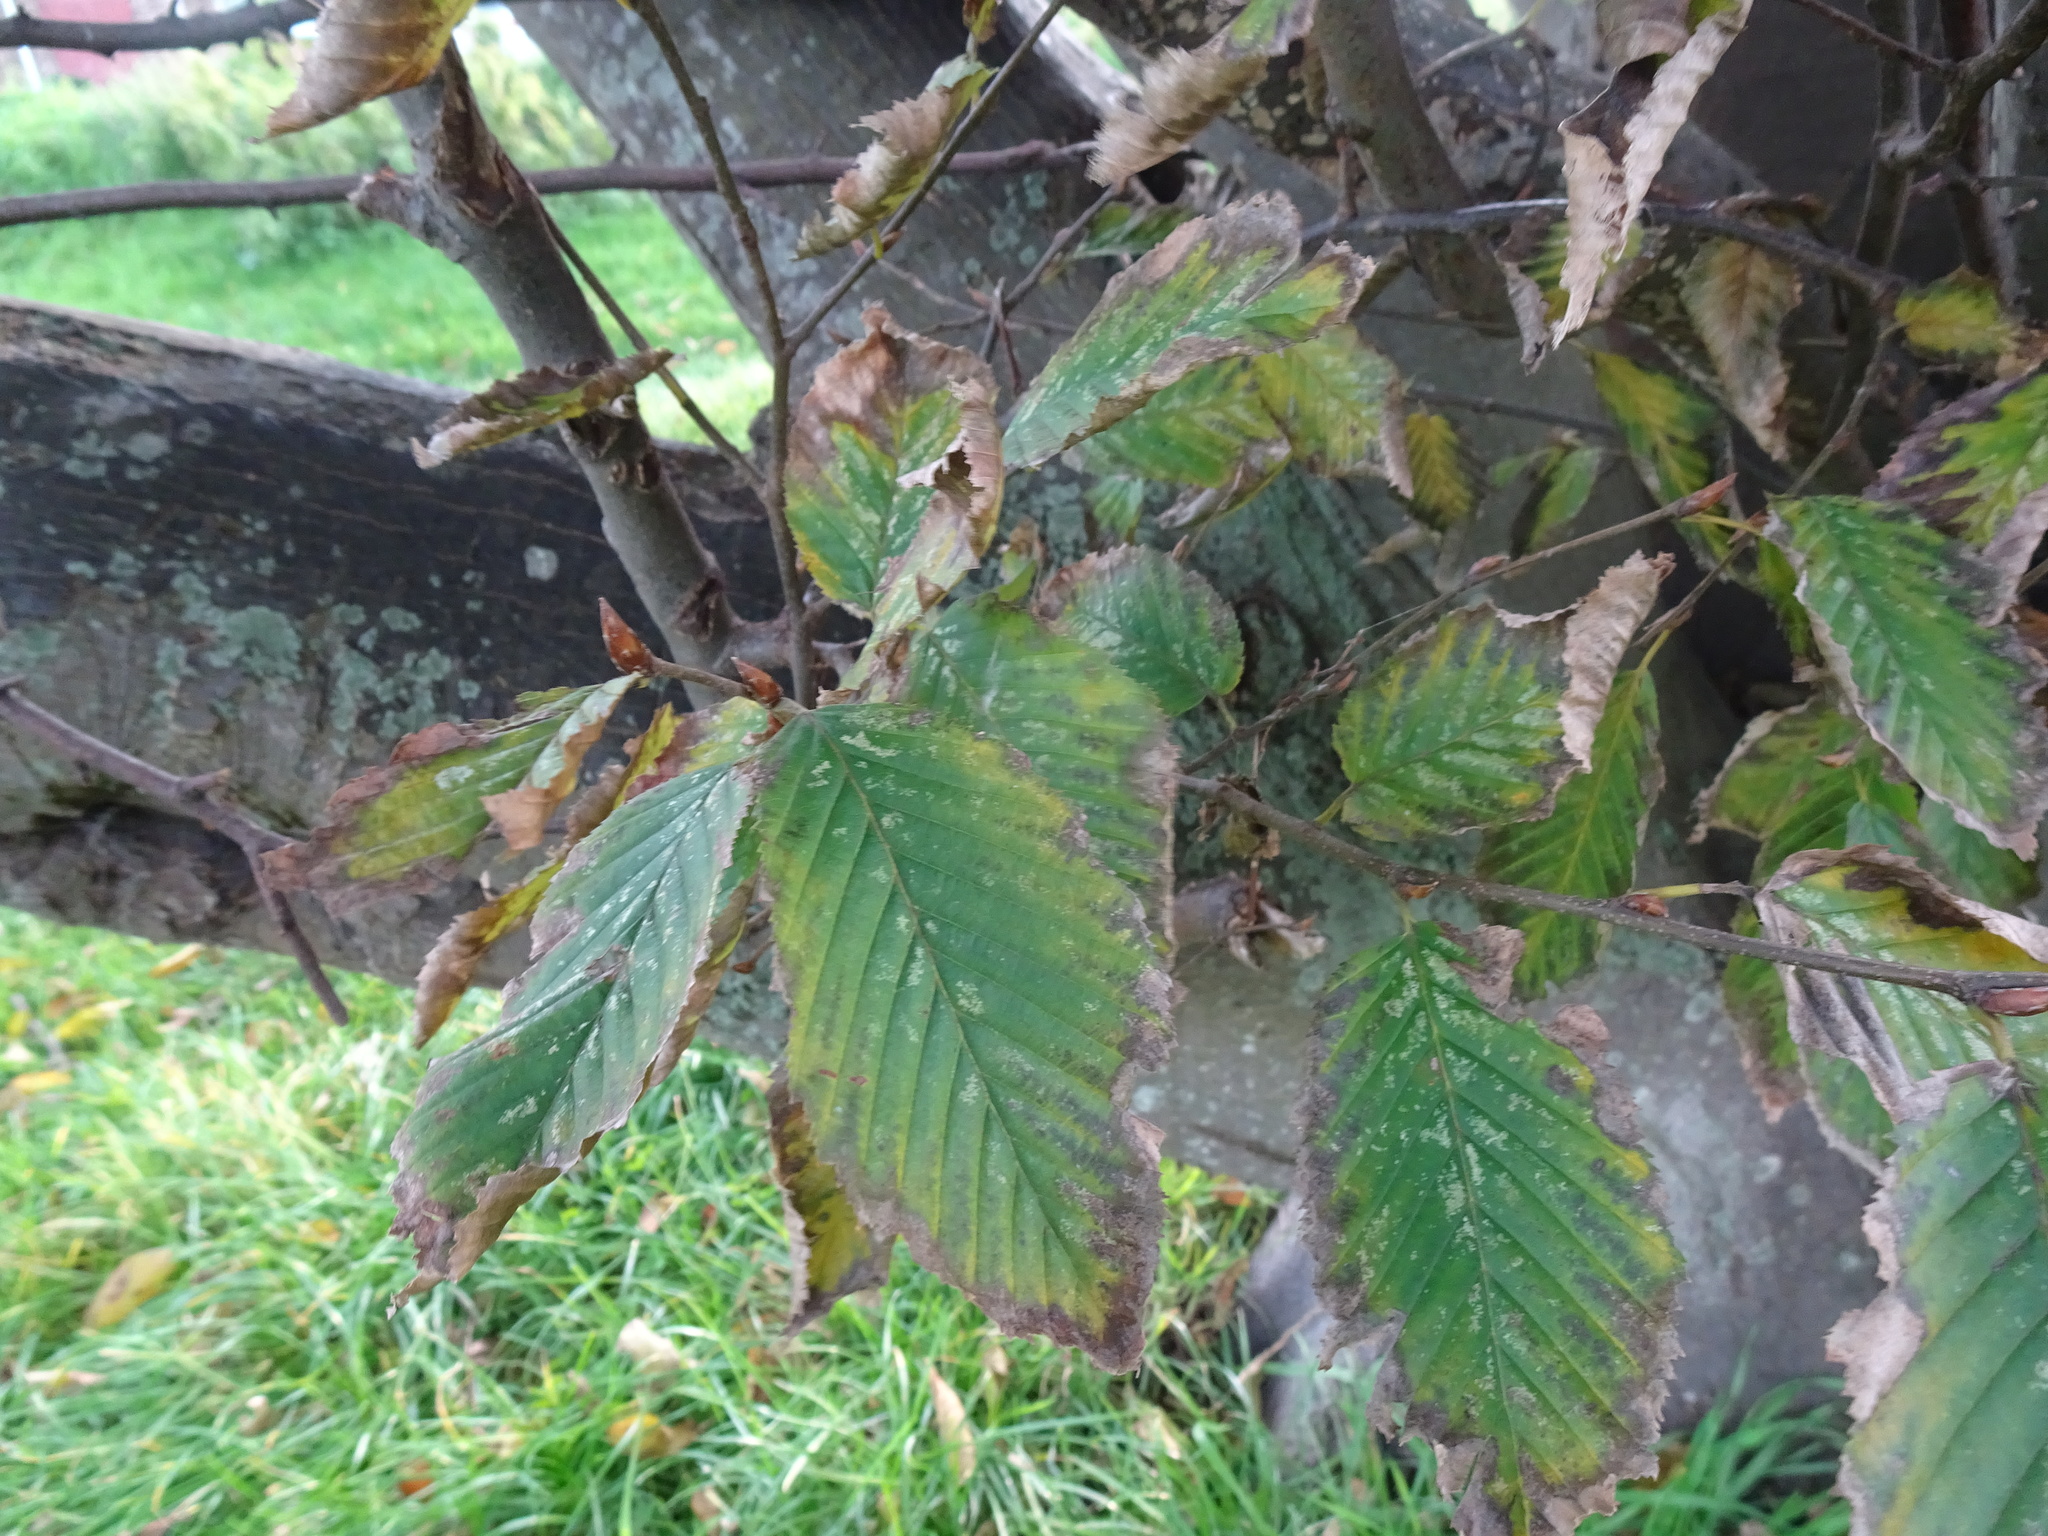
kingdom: Plantae
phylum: Tracheophyta
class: Magnoliopsida
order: Fagales
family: Betulaceae
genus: Carpinus
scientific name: Carpinus betulus
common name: Hornbeam
